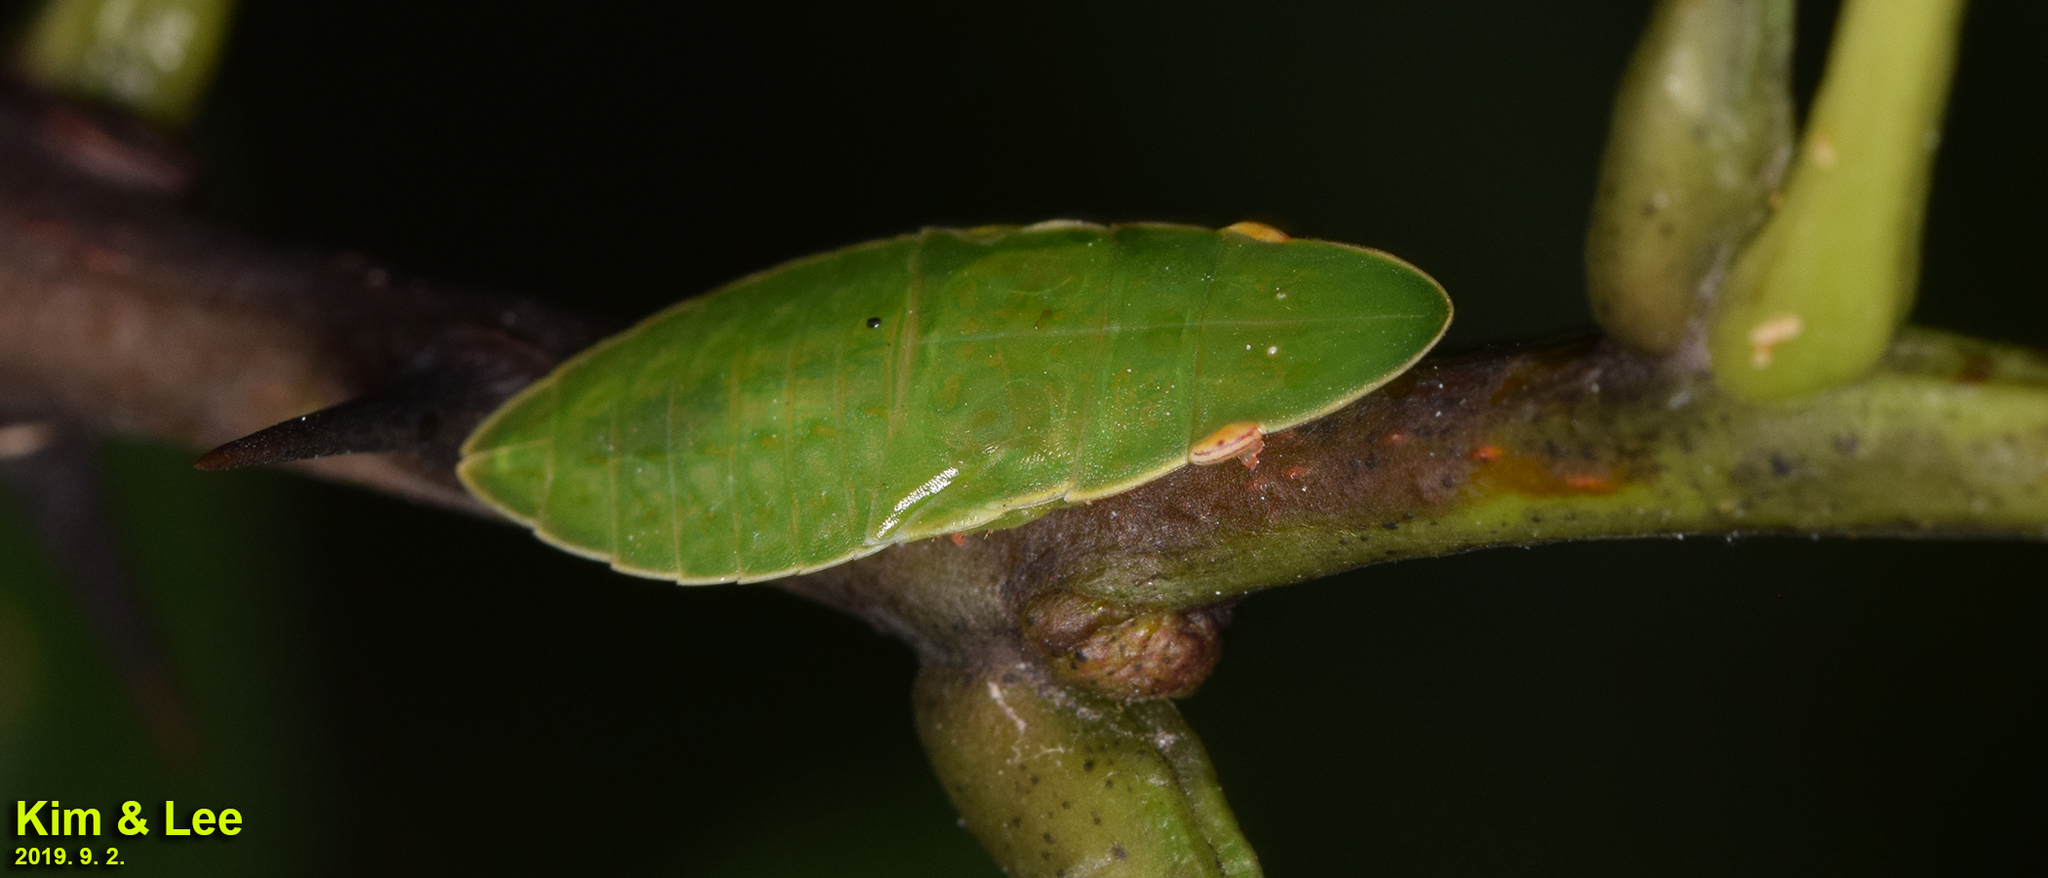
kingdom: Animalia
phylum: Arthropoda
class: Insecta
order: Hemiptera
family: Cicadellidae
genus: Petalocephala
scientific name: Petalocephala manchurica
